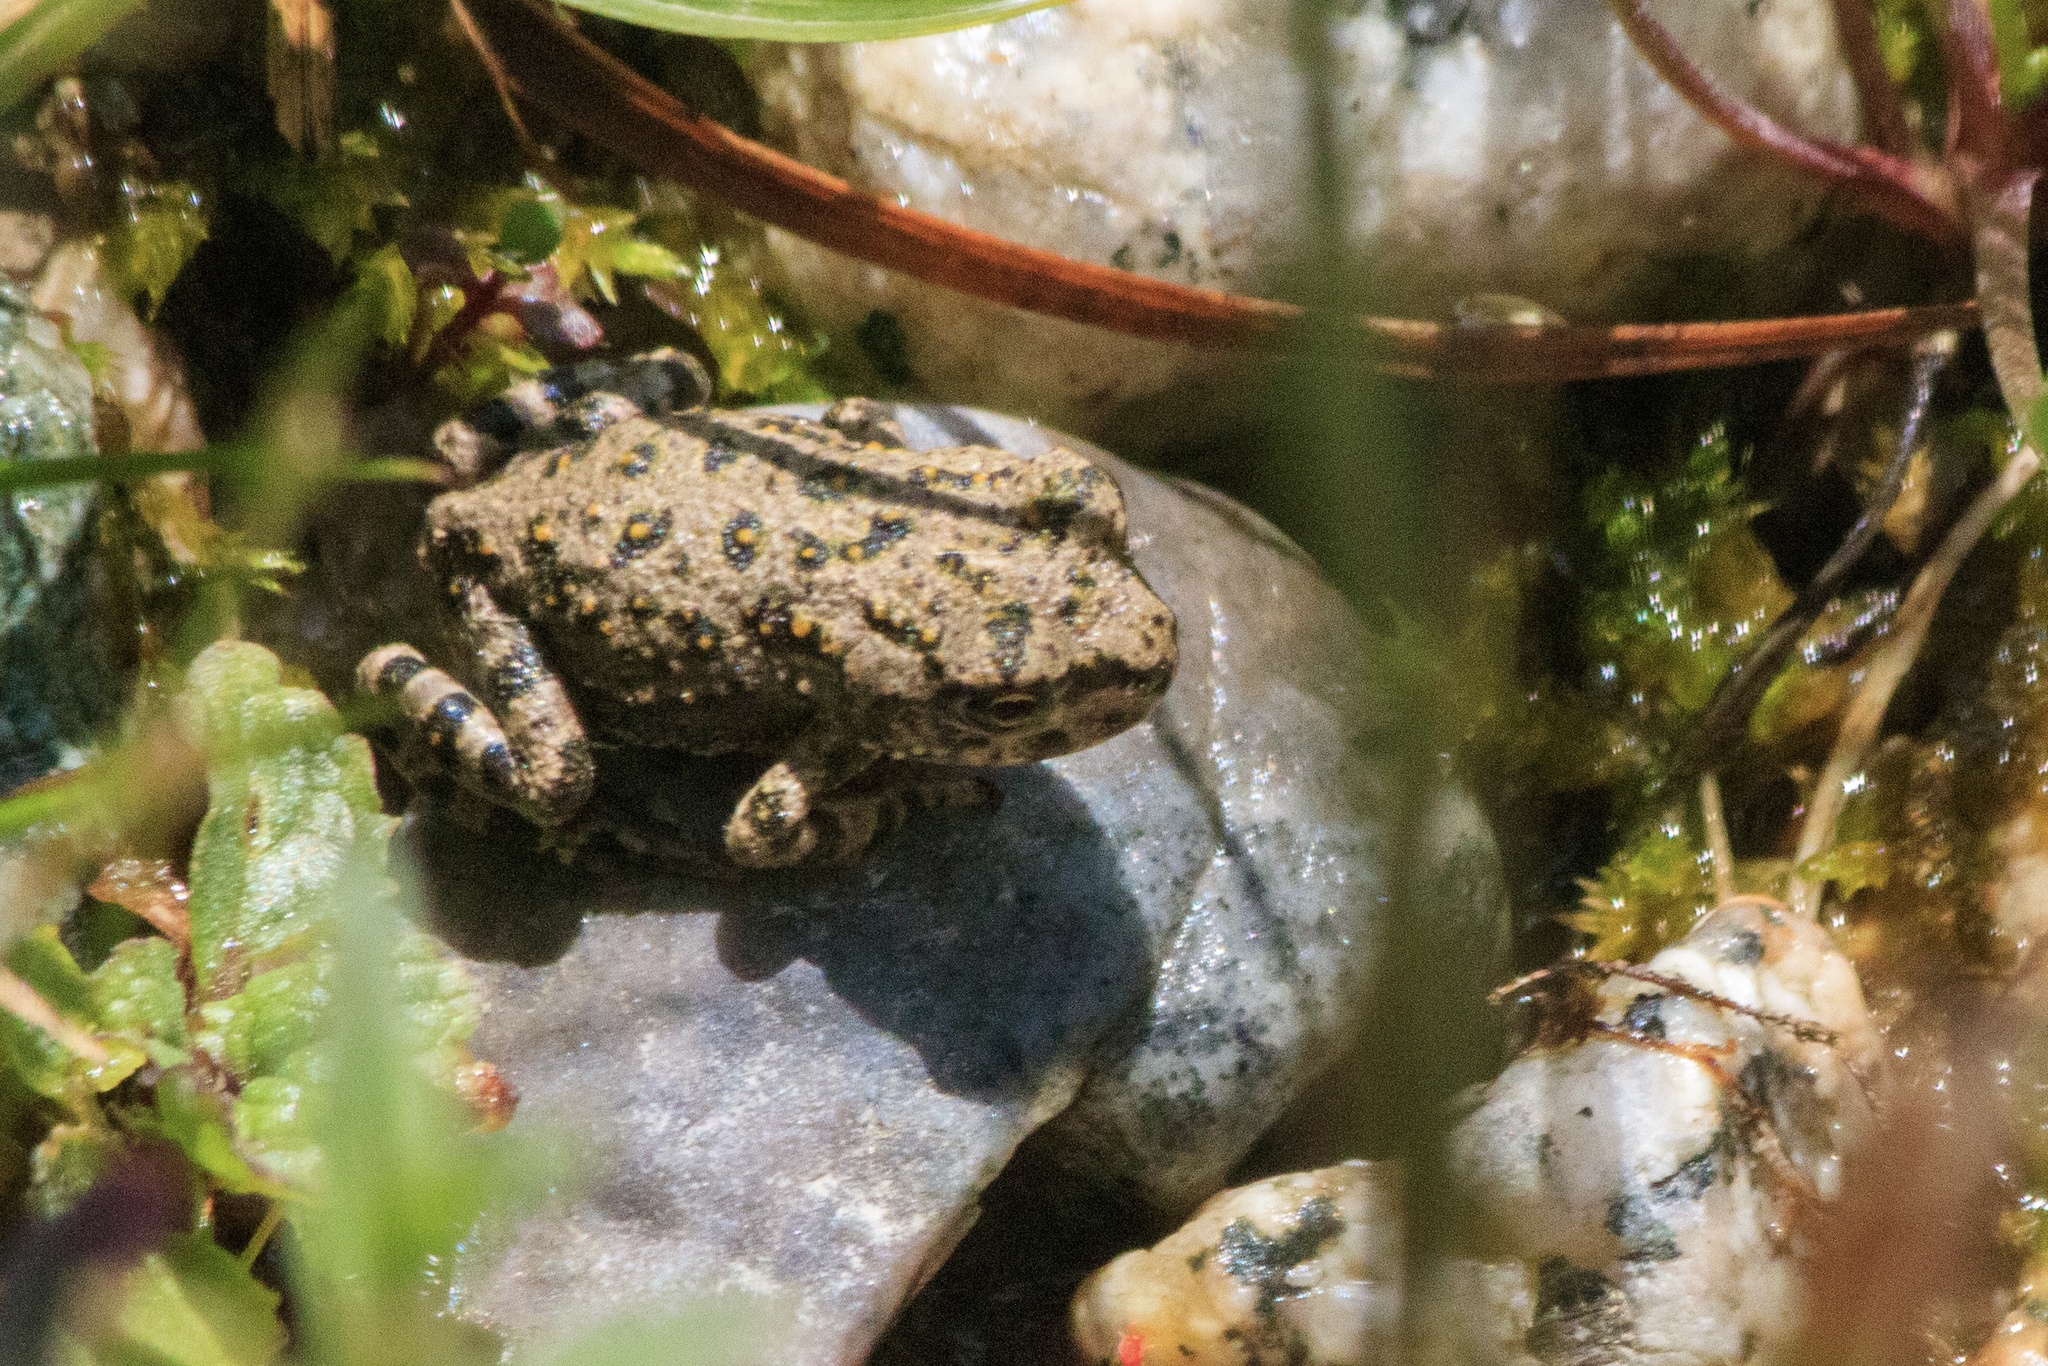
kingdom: Animalia
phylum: Chordata
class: Amphibia
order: Anura
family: Bufonidae
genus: Bufotes
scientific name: Bufotes pewzowi
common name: Xinjiang toad
